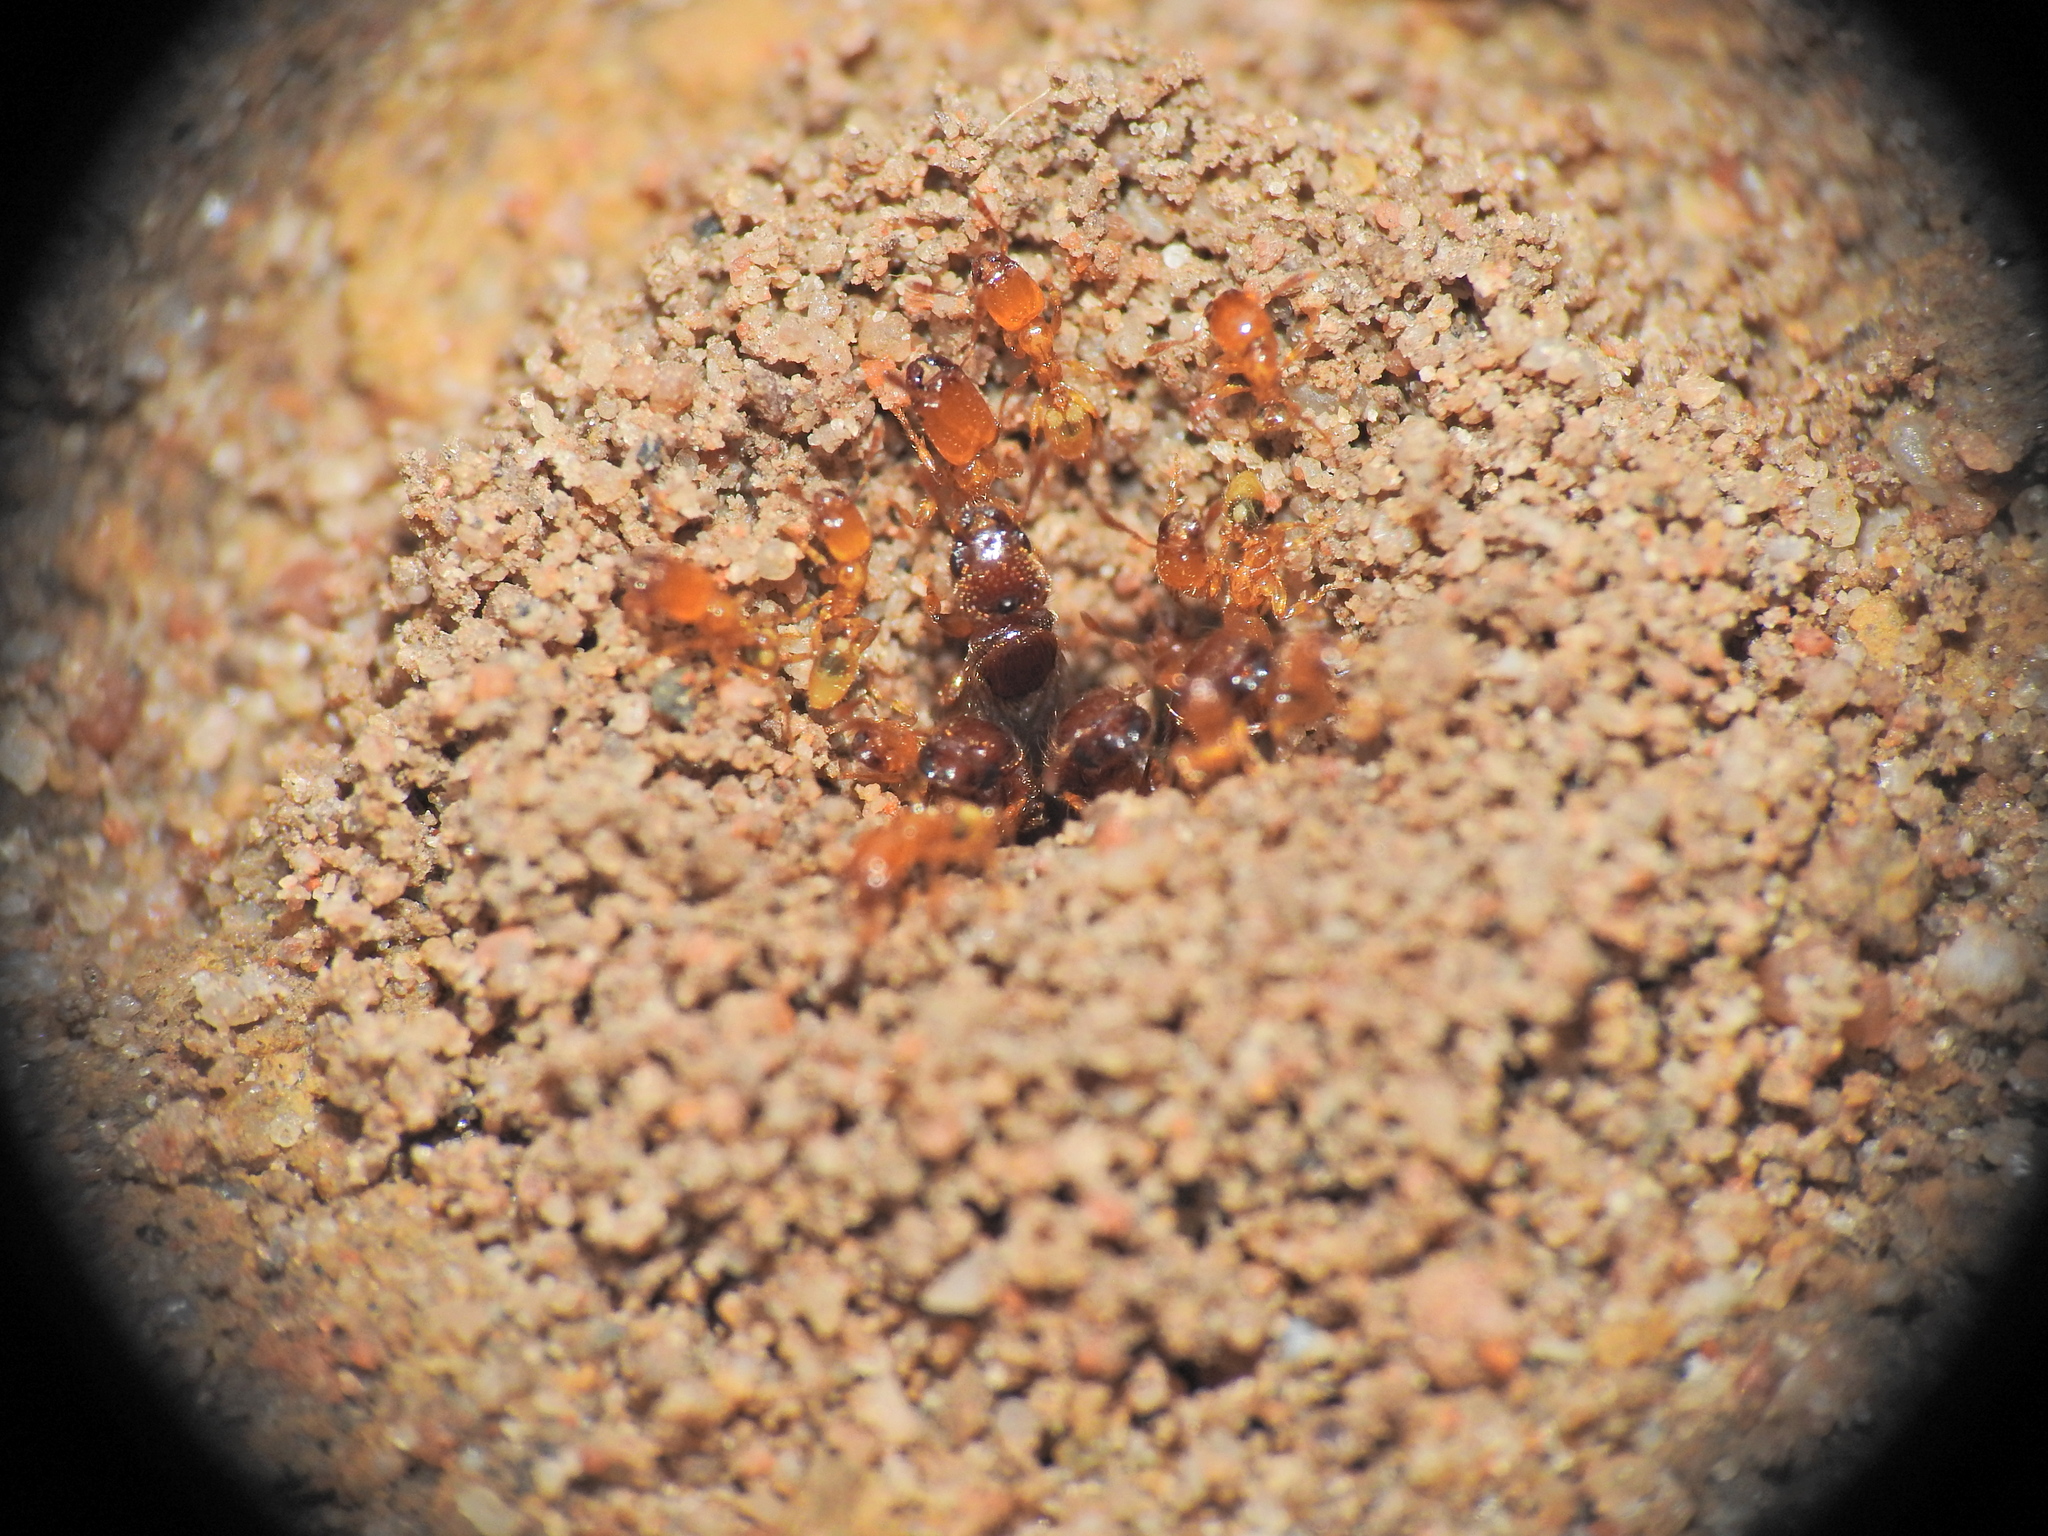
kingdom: Animalia
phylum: Arthropoda
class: Insecta
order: Hymenoptera
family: Formicidae
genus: Pheidole
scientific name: Pheidole
